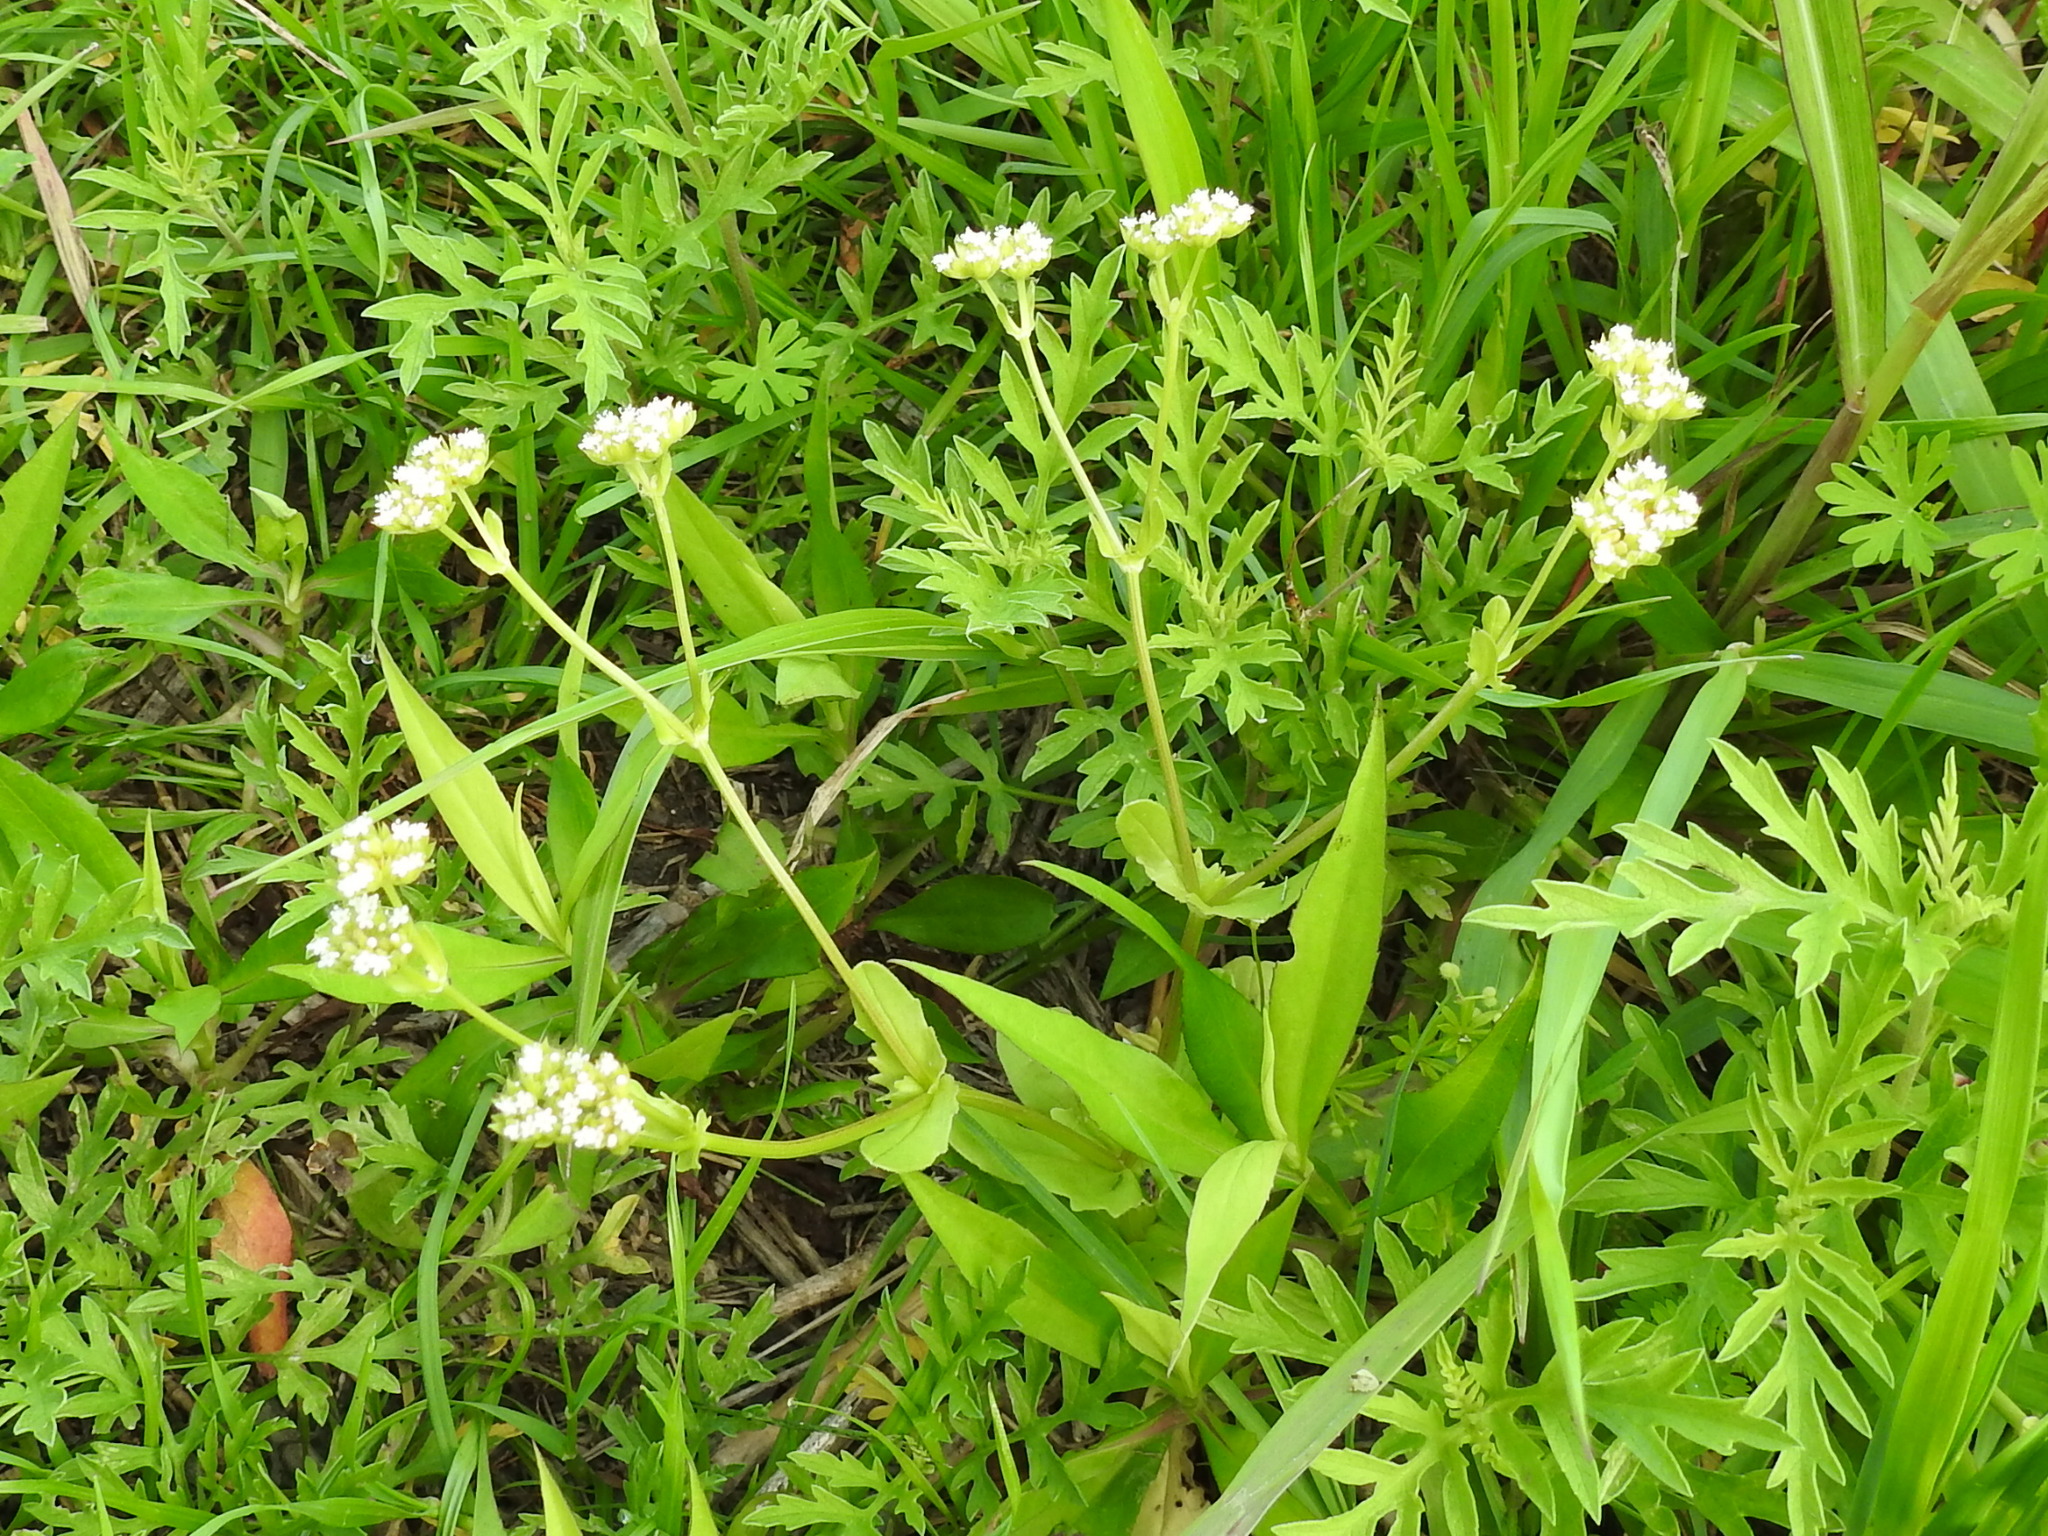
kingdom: Plantae
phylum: Tracheophyta
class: Magnoliopsida
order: Dipsacales
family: Caprifoliaceae
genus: Valerianella
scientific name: Valerianella radiata
